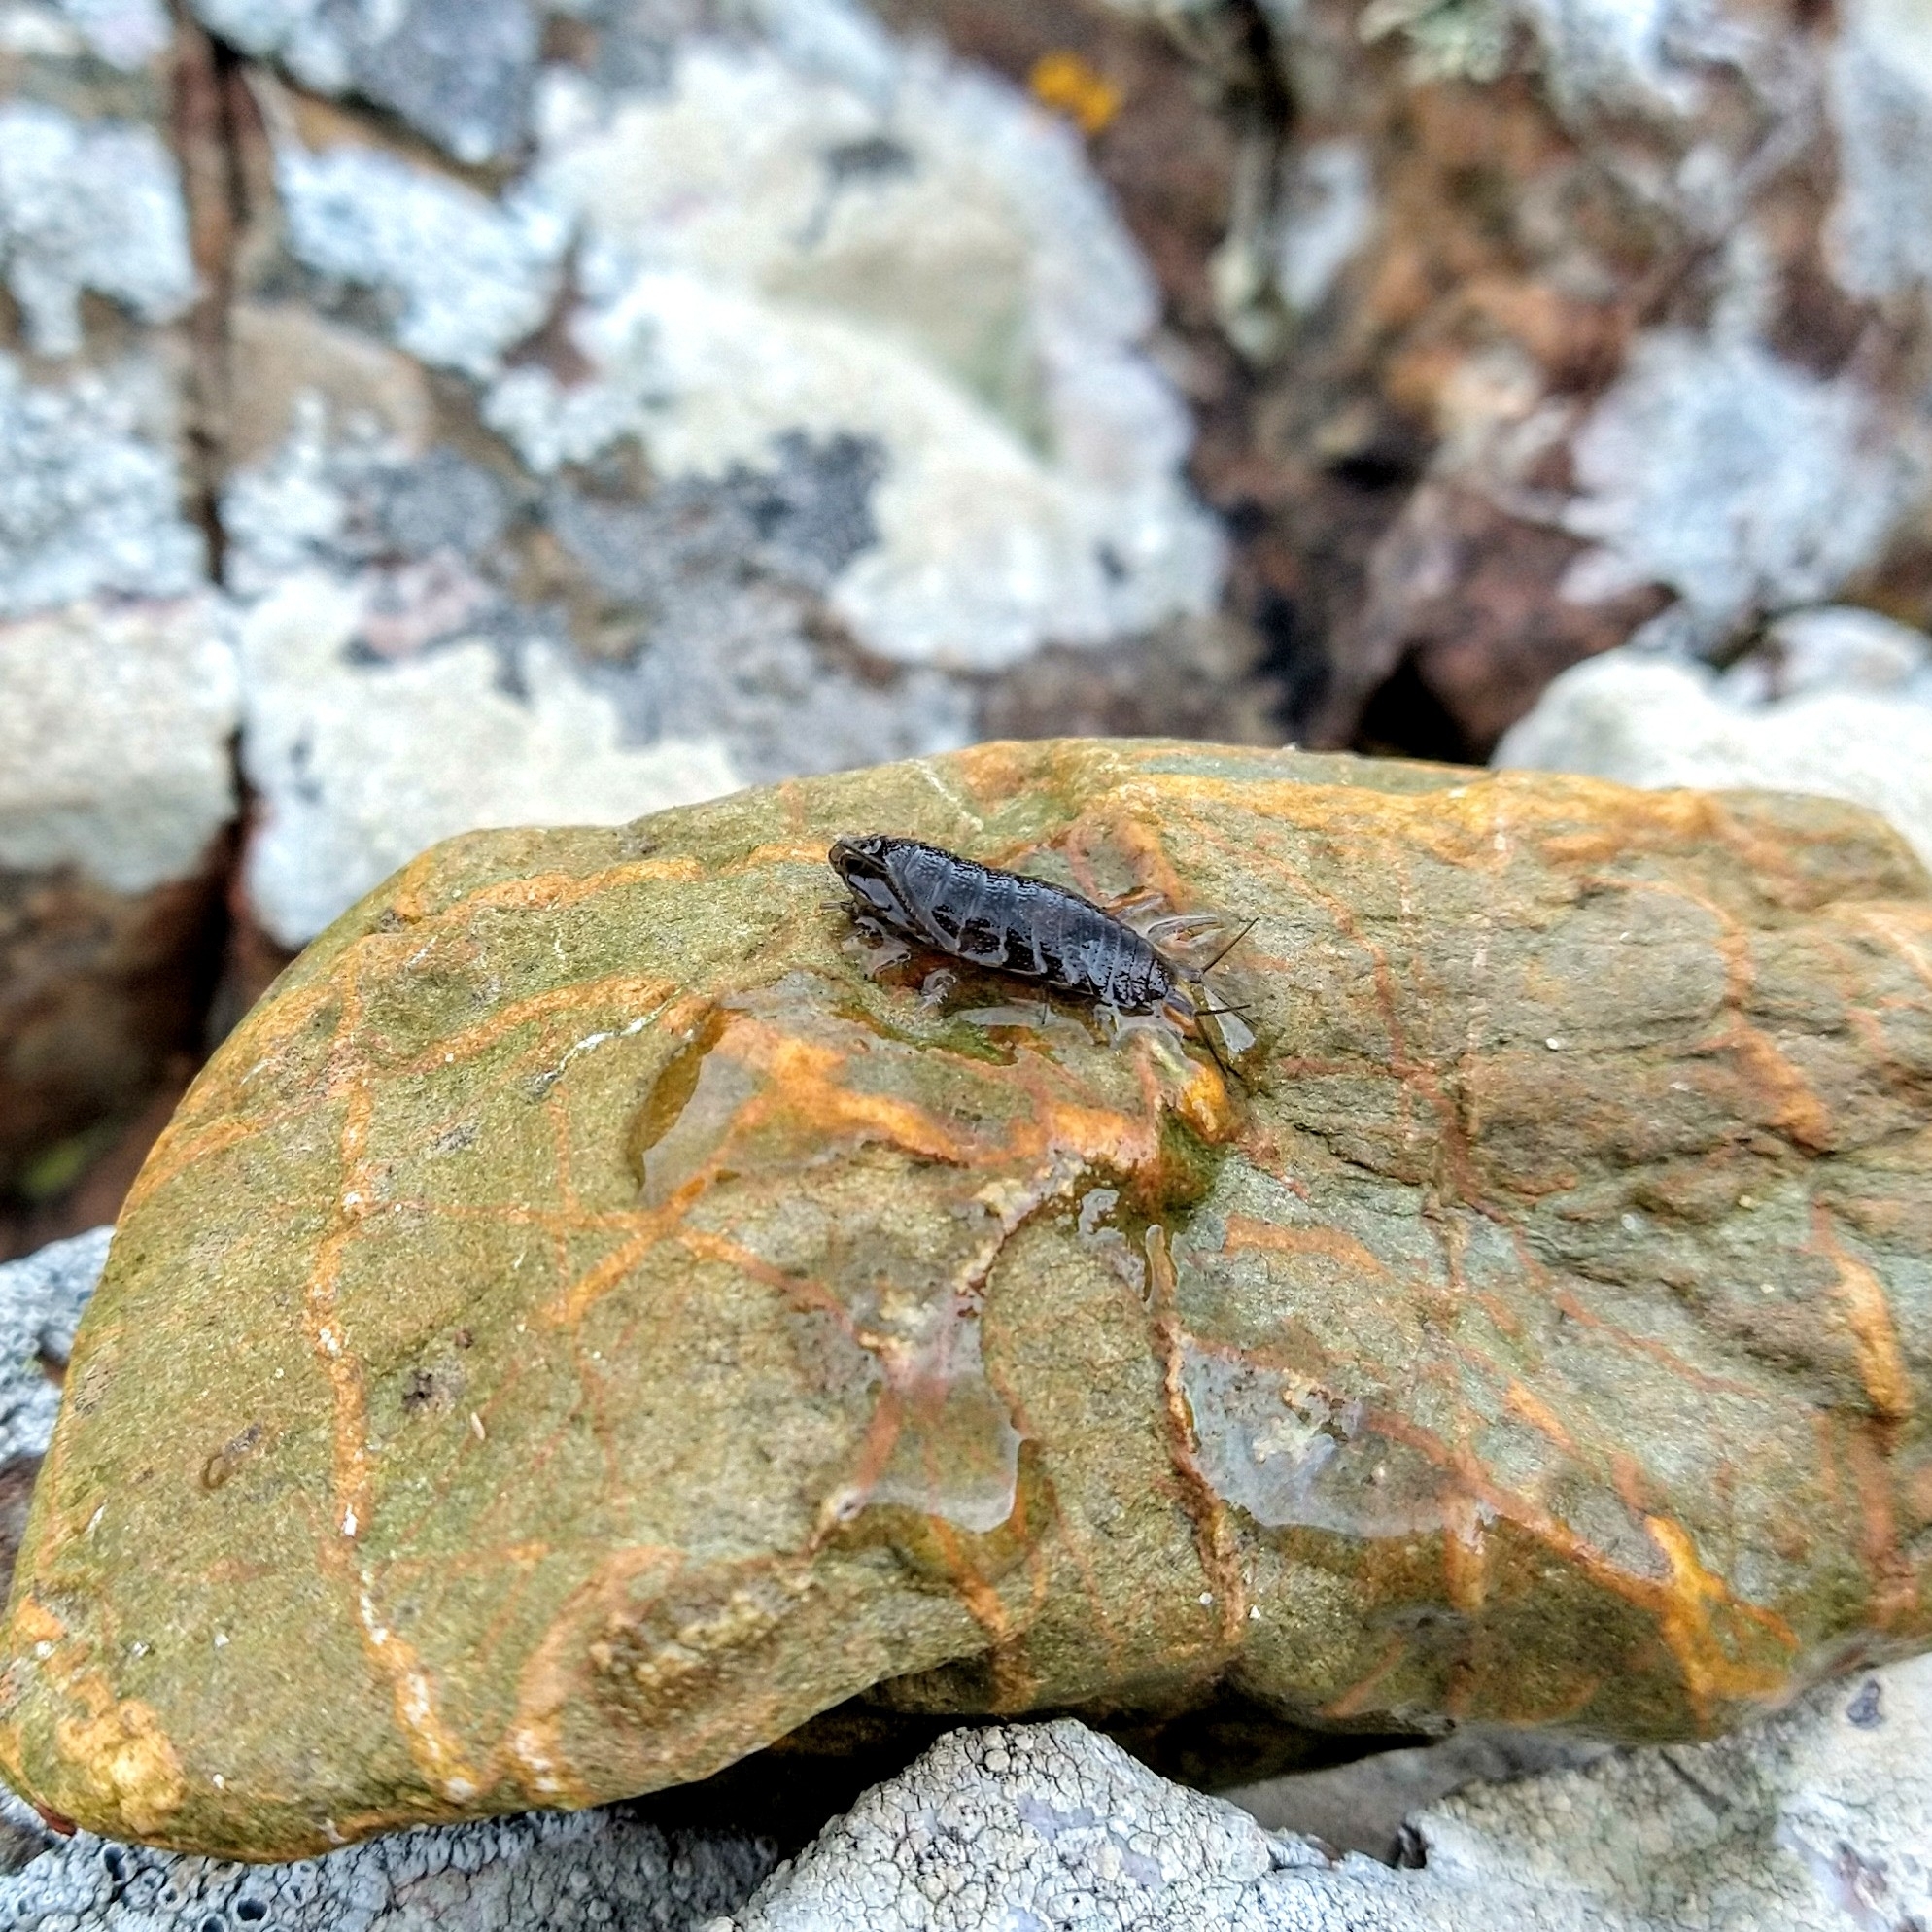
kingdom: Animalia
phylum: Arthropoda
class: Malacostraca
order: Isopoda
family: Ligiidae
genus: Ligia
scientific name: Ligia oceanica
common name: Sea slater
